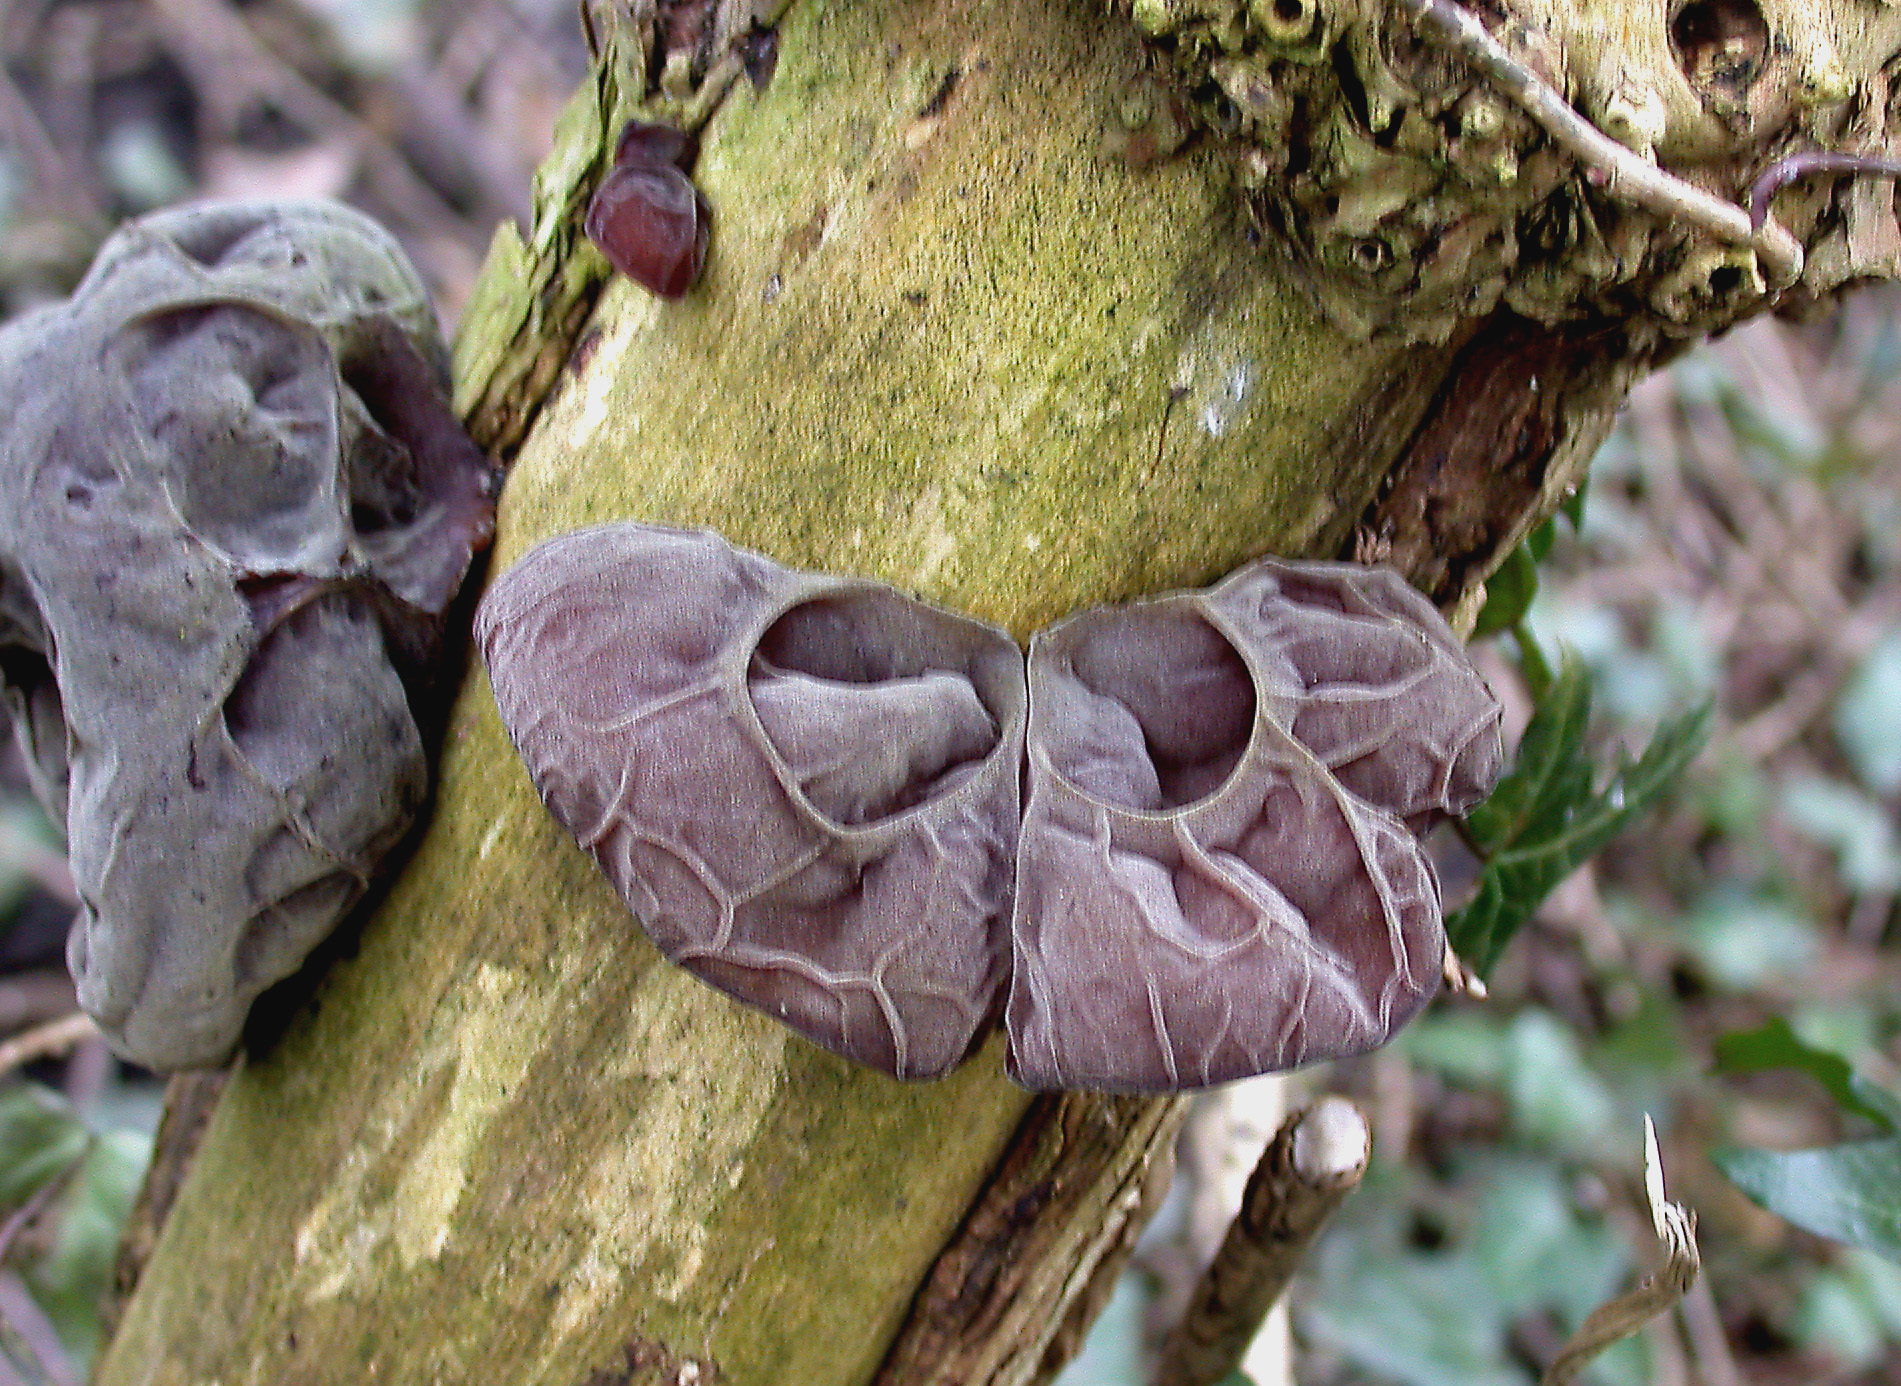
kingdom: Fungi
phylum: Basidiomycota
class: Agaricomycetes
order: Auriculariales
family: Auriculariaceae
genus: Auricularia
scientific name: Auricularia auricula-judae
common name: Jelly ear
